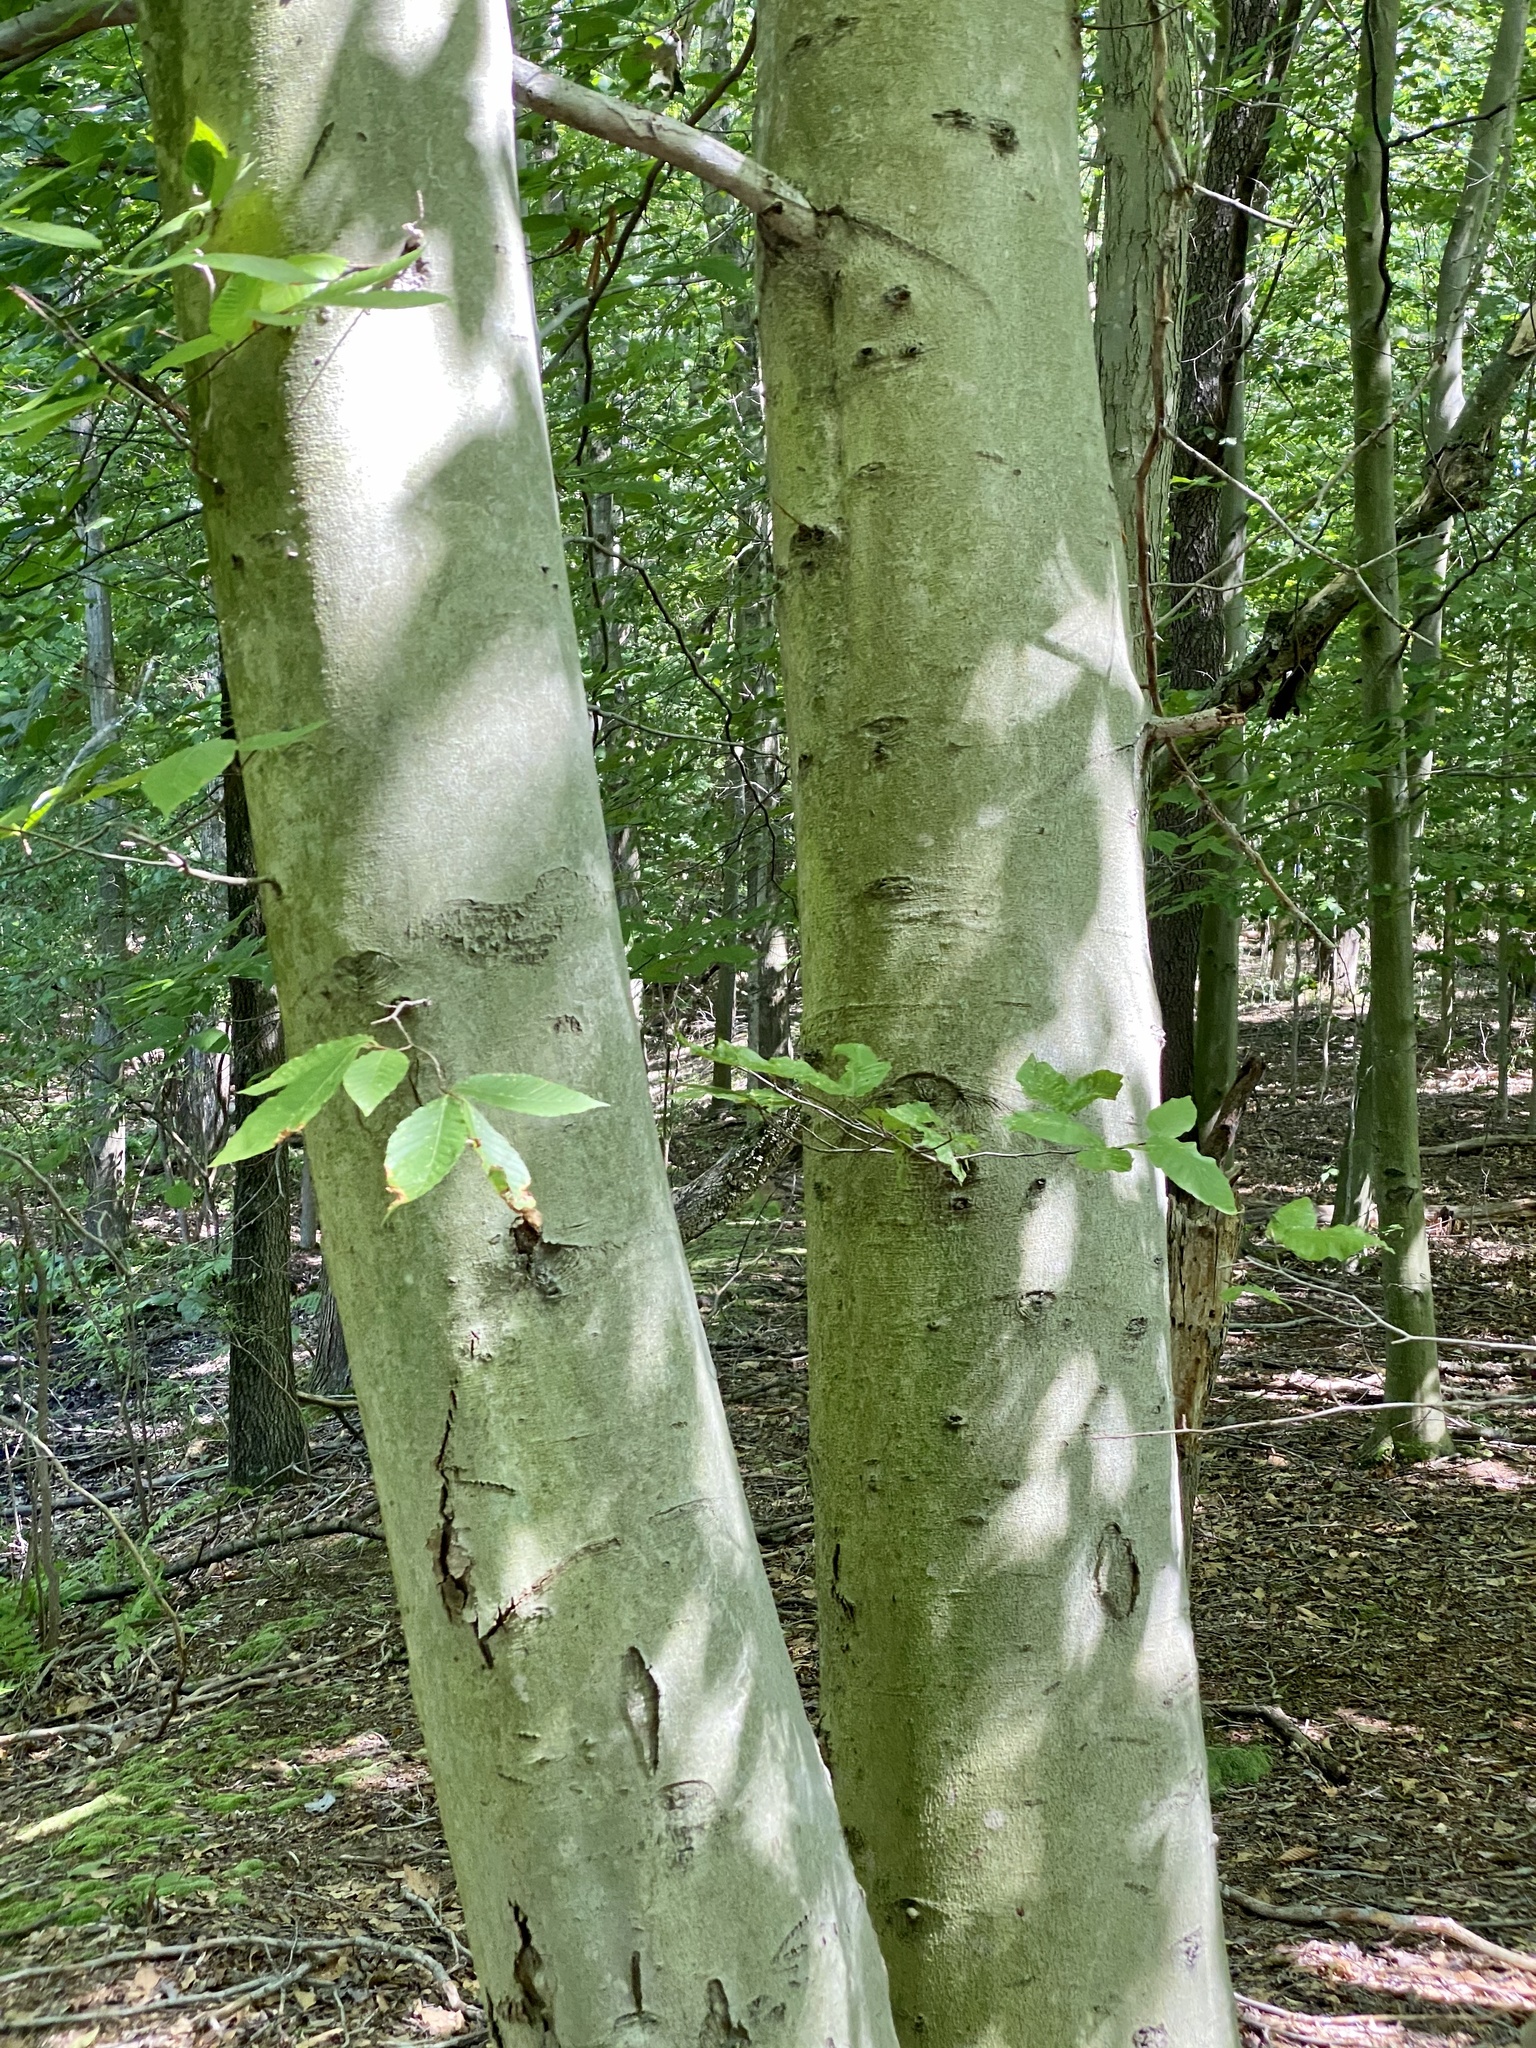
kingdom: Plantae
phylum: Tracheophyta
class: Magnoliopsida
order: Fagales
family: Fagaceae
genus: Fagus
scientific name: Fagus grandifolia
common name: American beech
